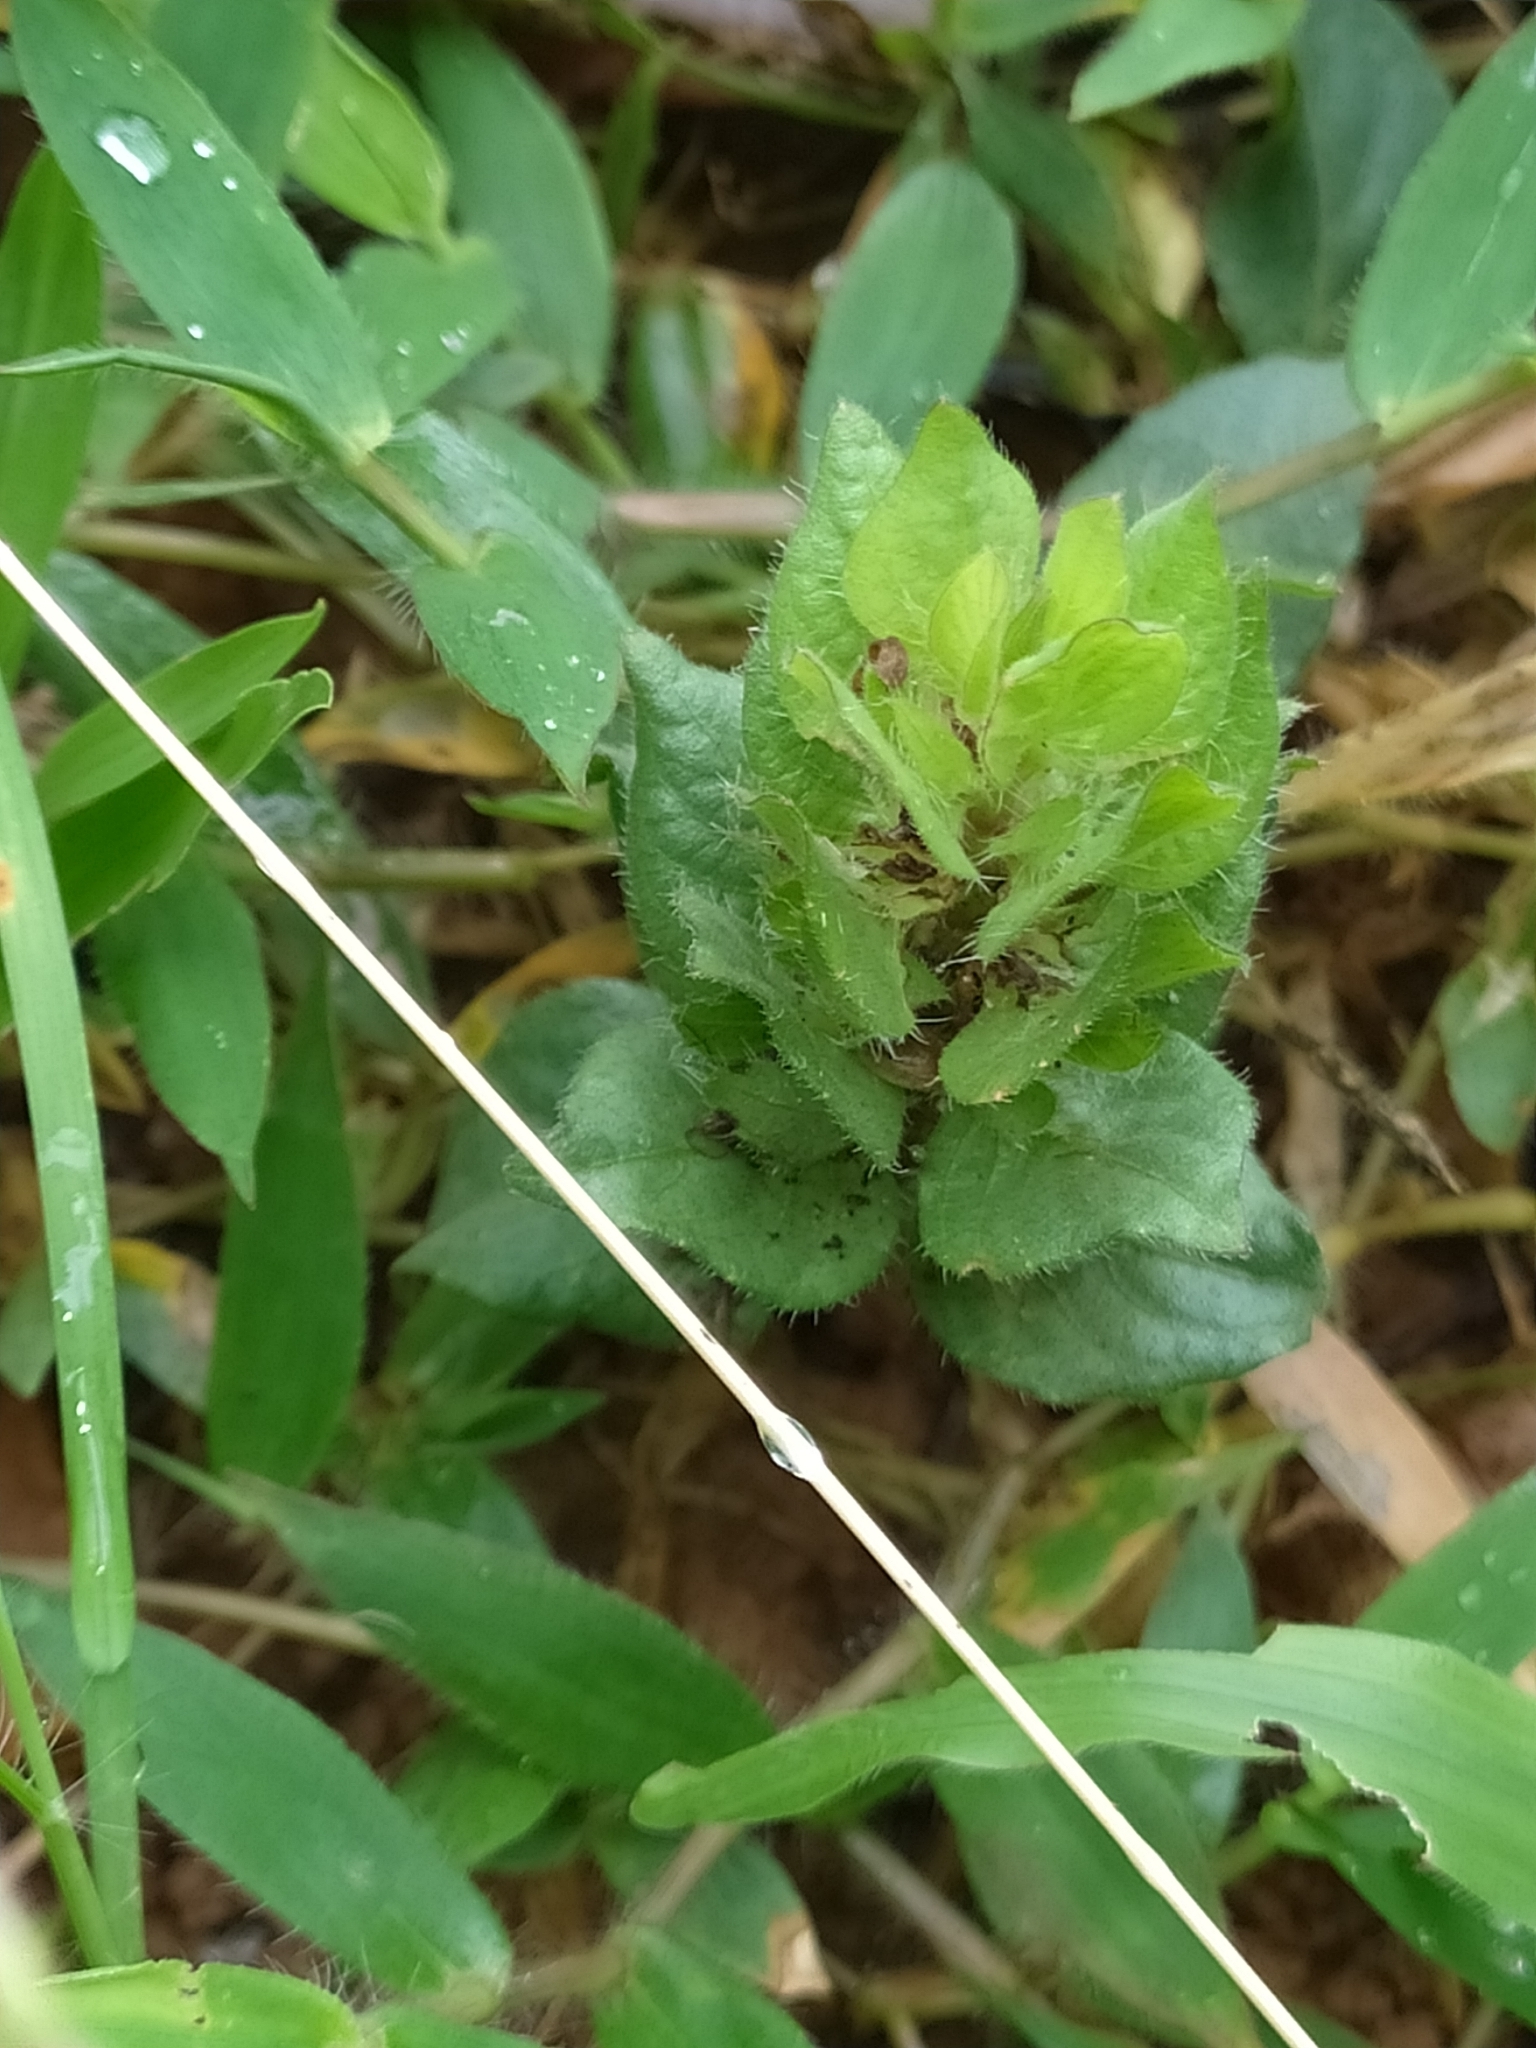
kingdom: Plantae
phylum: Tracheophyta
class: Magnoliopsida
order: Lamiales
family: Acanthaceae
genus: Ruellia
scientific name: Ruellia blechum
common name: Browne's blechum
